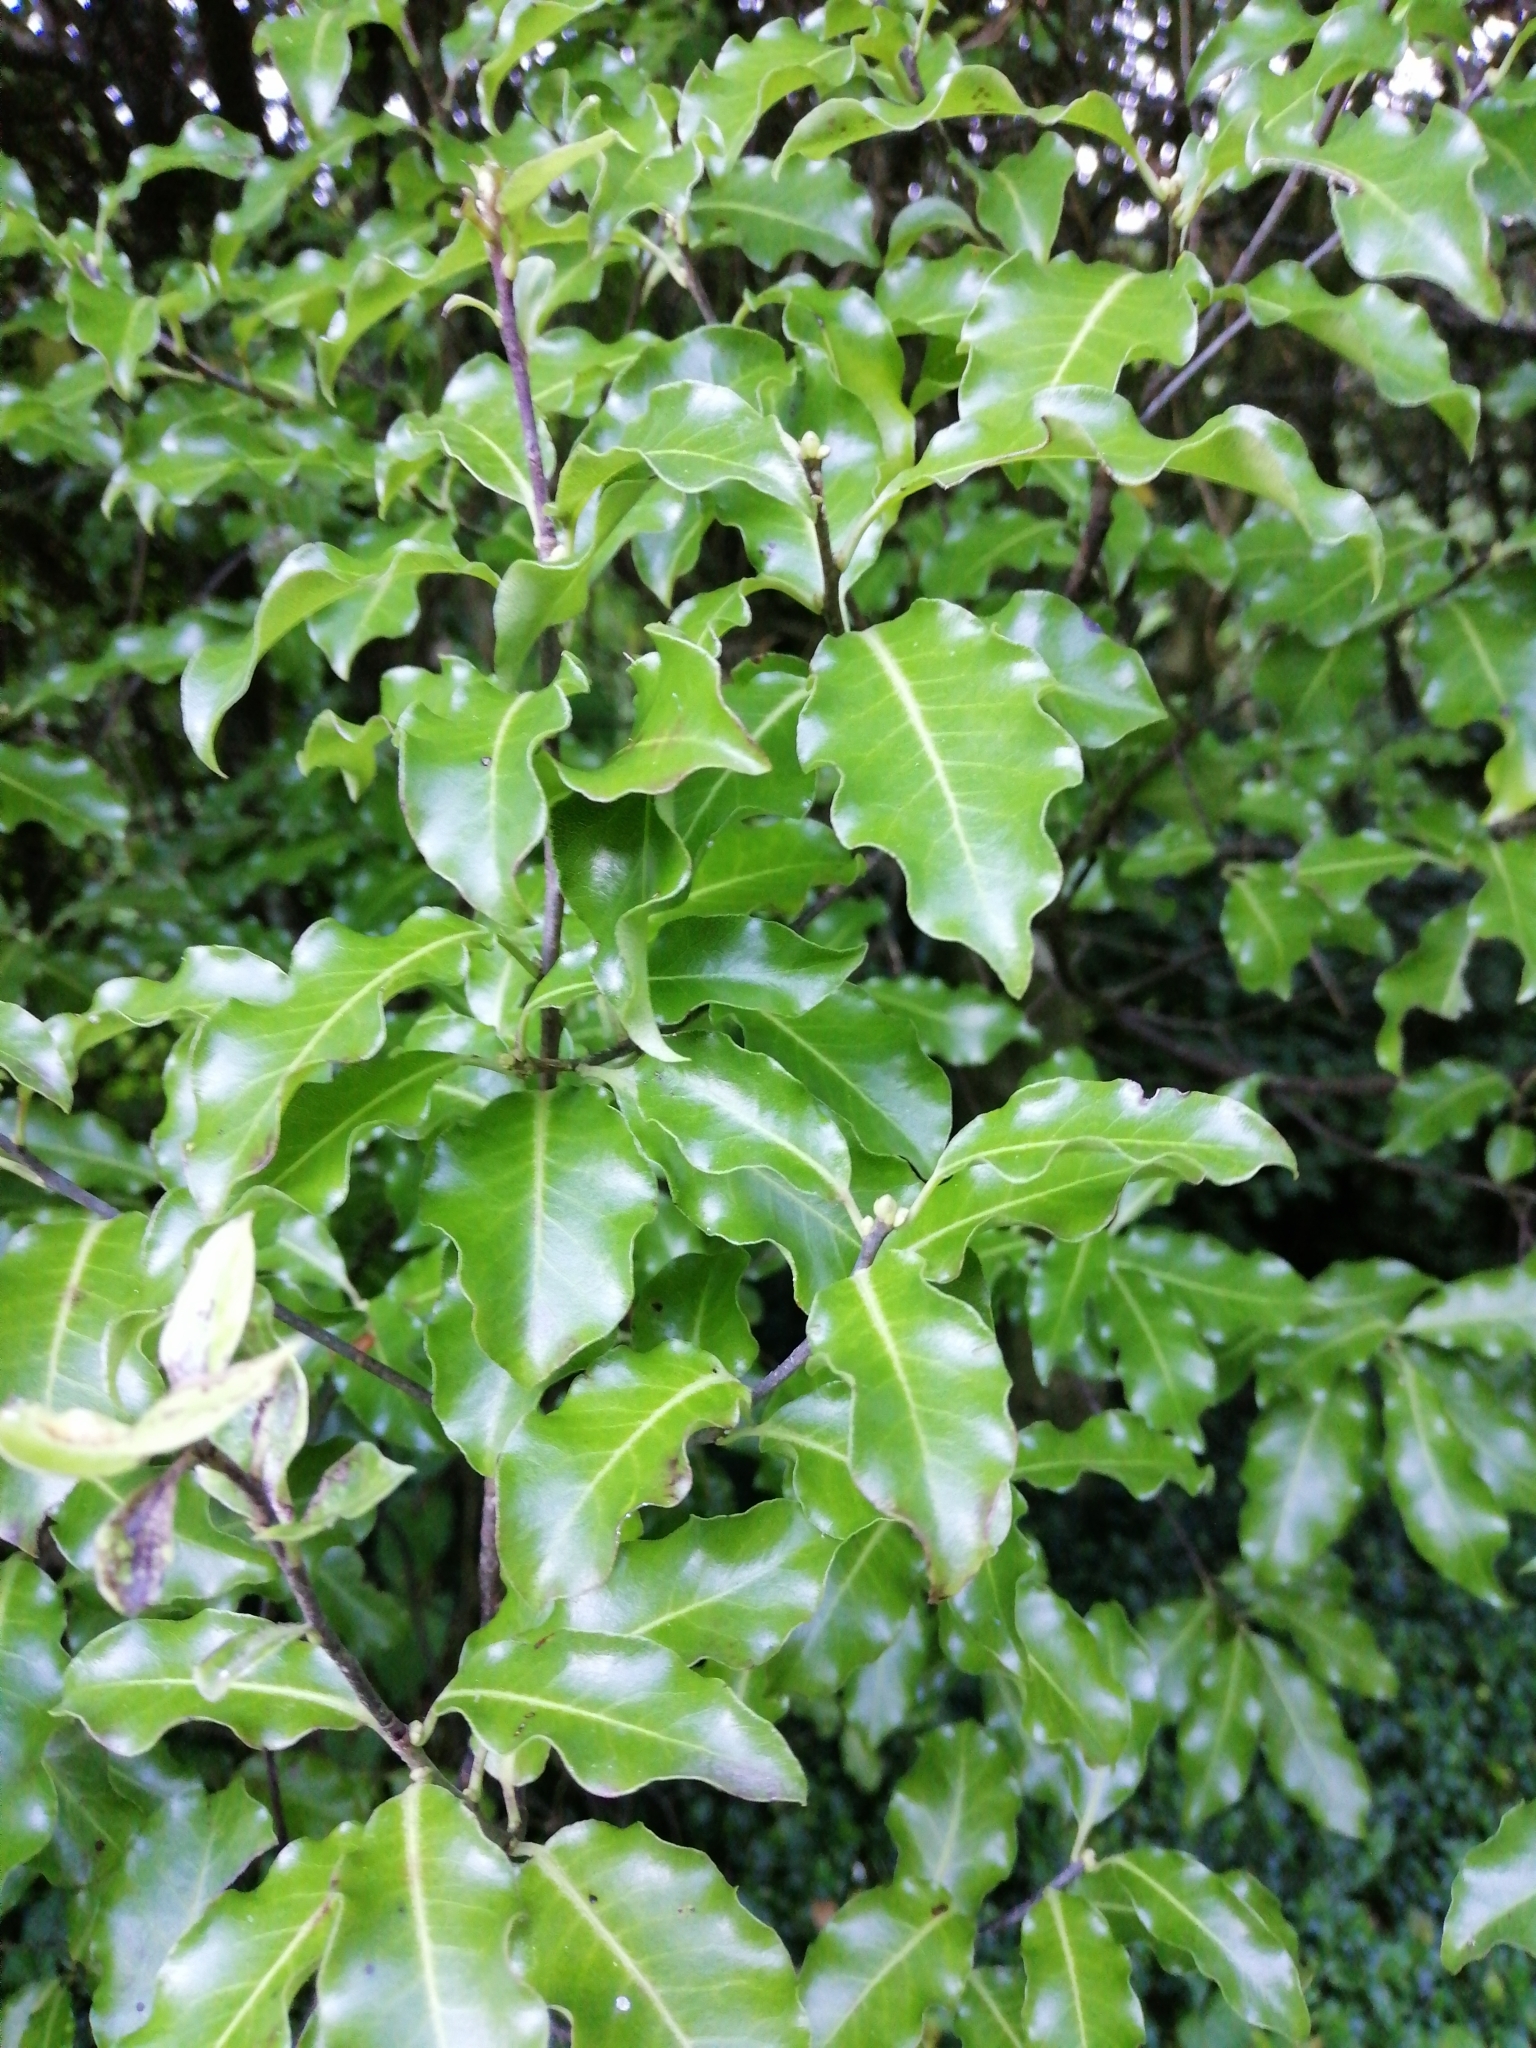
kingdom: Plantae
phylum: Tracheophyta
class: Magnoliopsida
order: Apiales
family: Pittosporaceae
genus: Pittosporum
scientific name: Pittosporum tenuifolium
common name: Kohuhu
